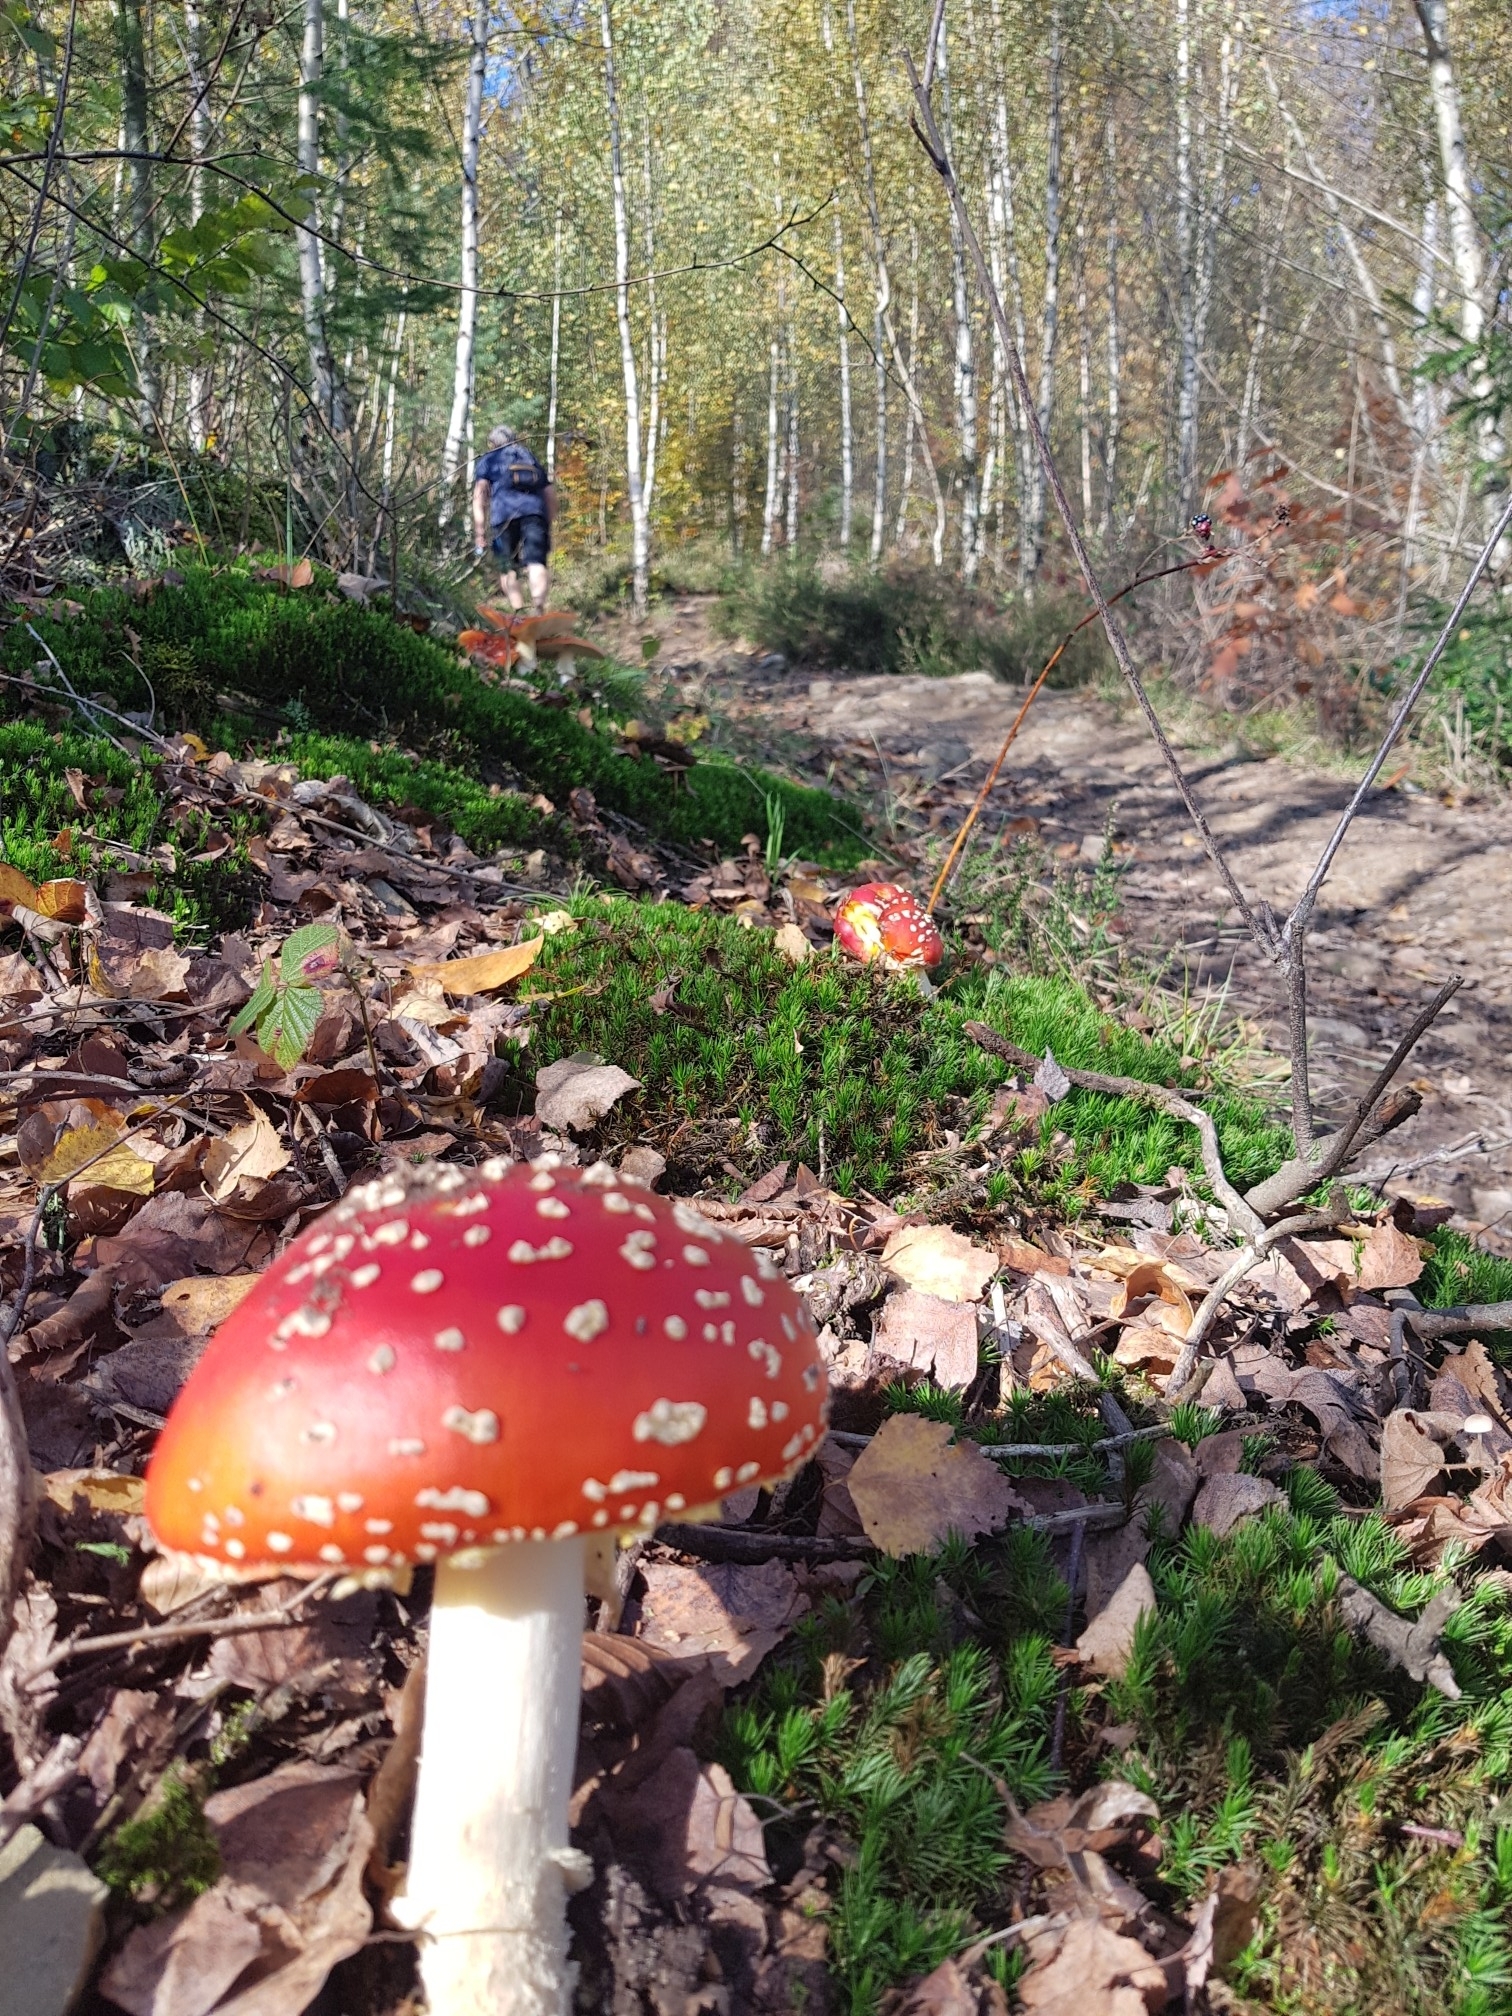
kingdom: Fungi
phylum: Basidiomycota
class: Agaricomycetes
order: Agaricales
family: Amanitaceae
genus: Amanita
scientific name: Amanita muscaria
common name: Fly agaric
